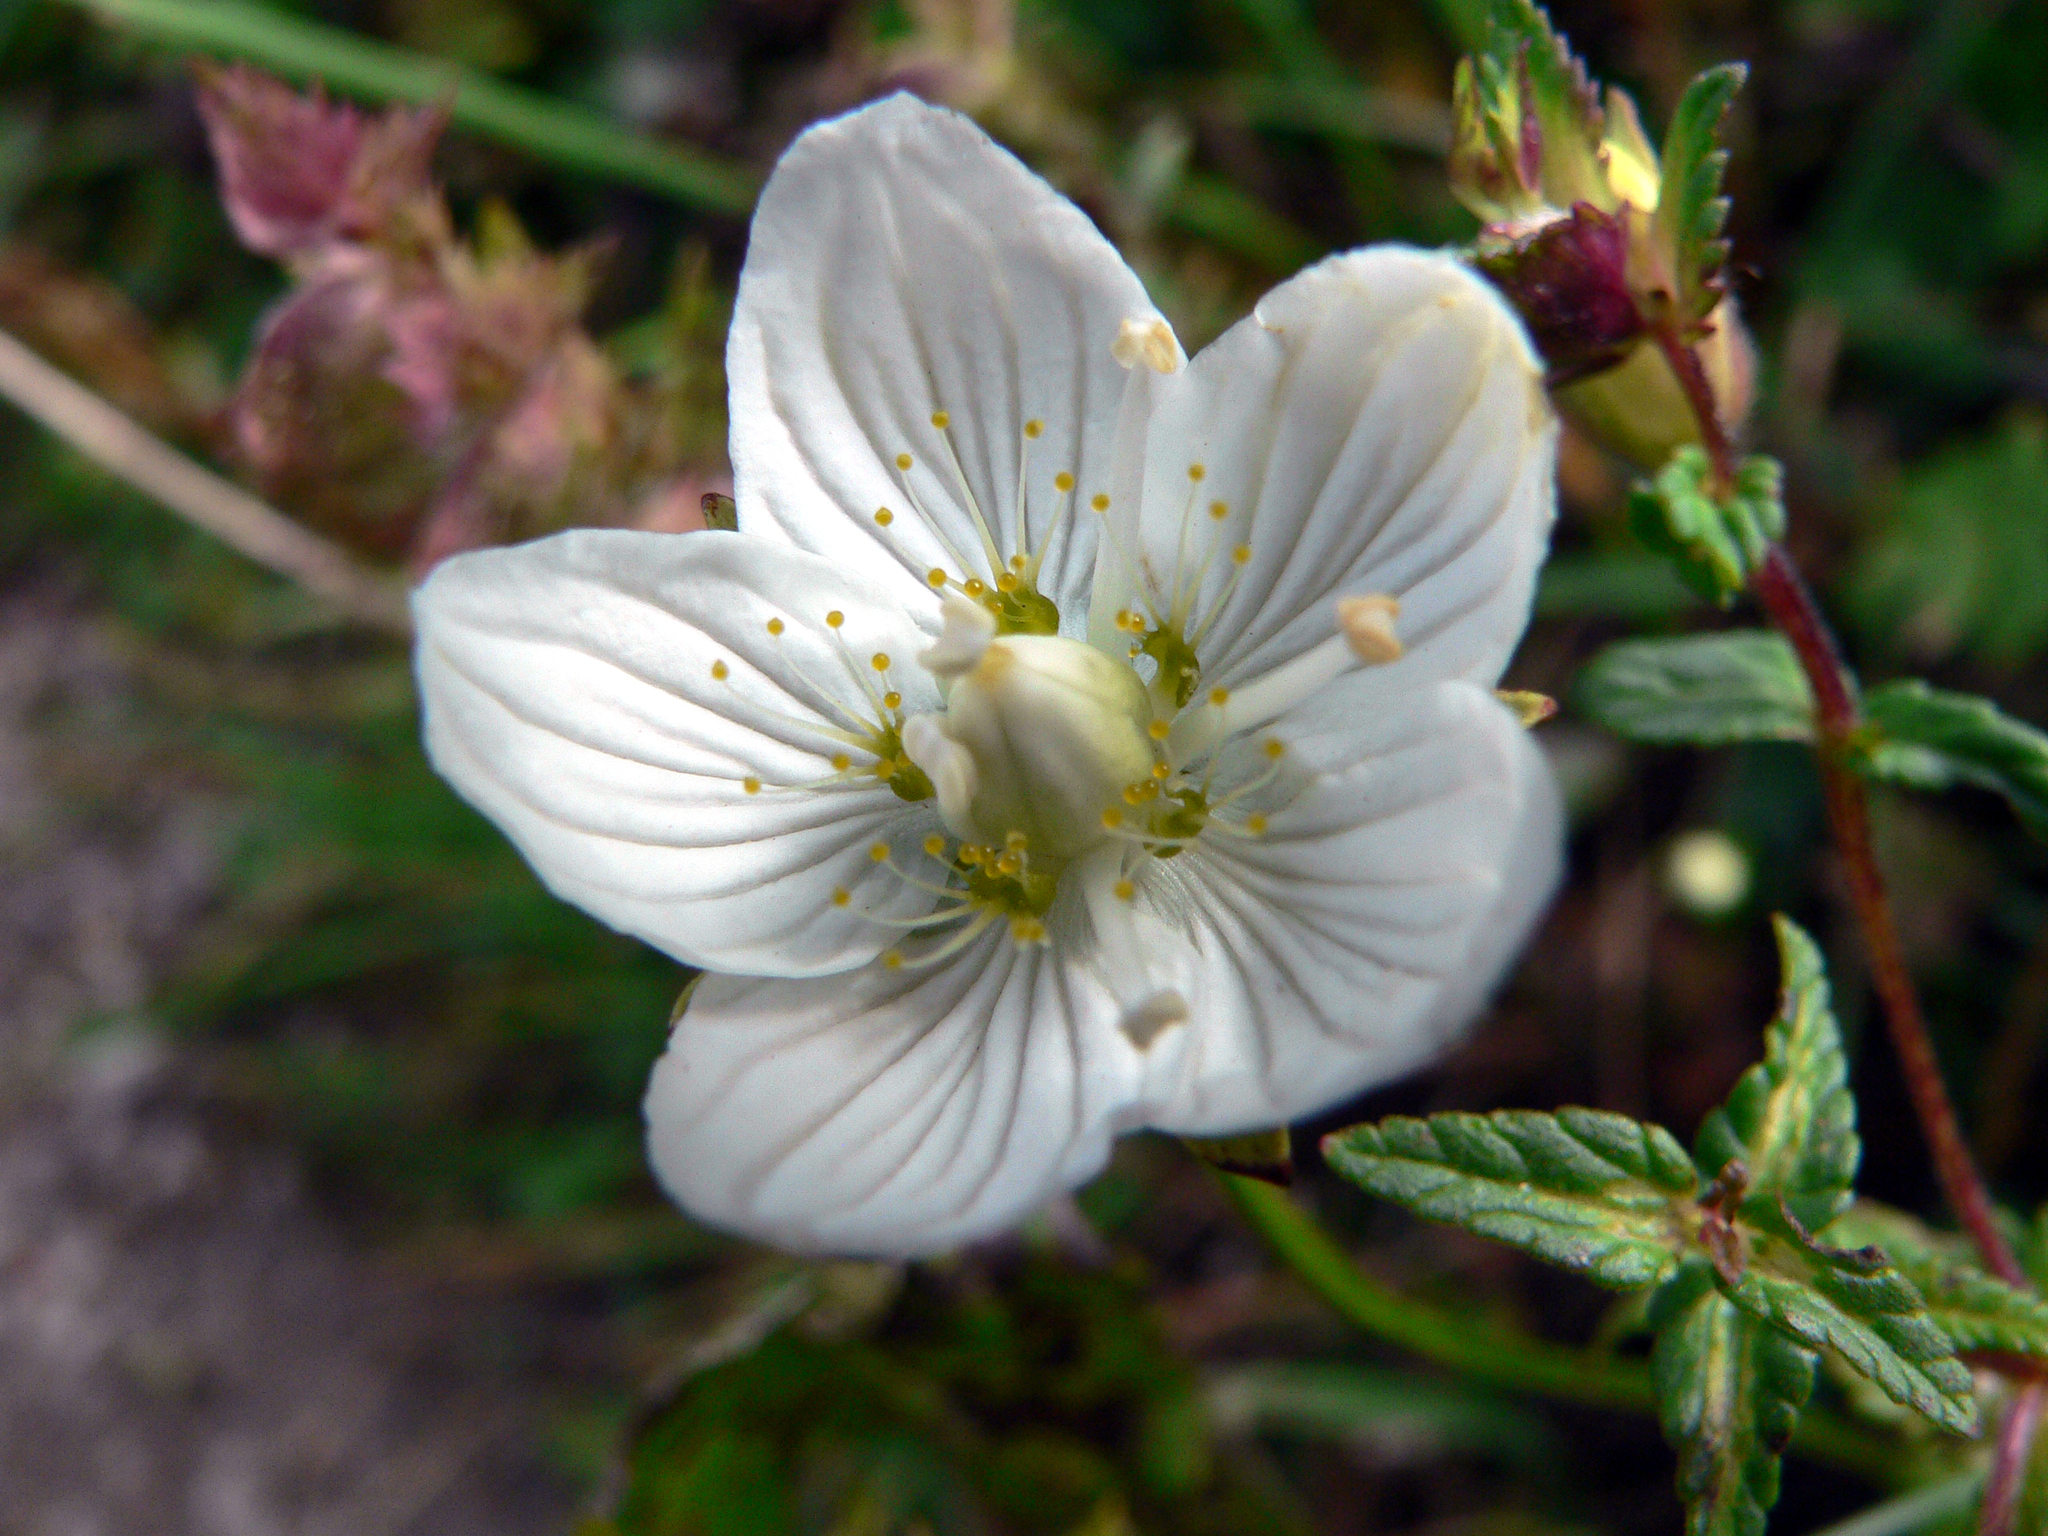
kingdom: Plantae
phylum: Tracheophyta
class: Magnoliopsida
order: Celastrales
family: Parnassiaceae
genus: Parnassia
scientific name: Parnassia palustris
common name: Grass-of-parnassus
